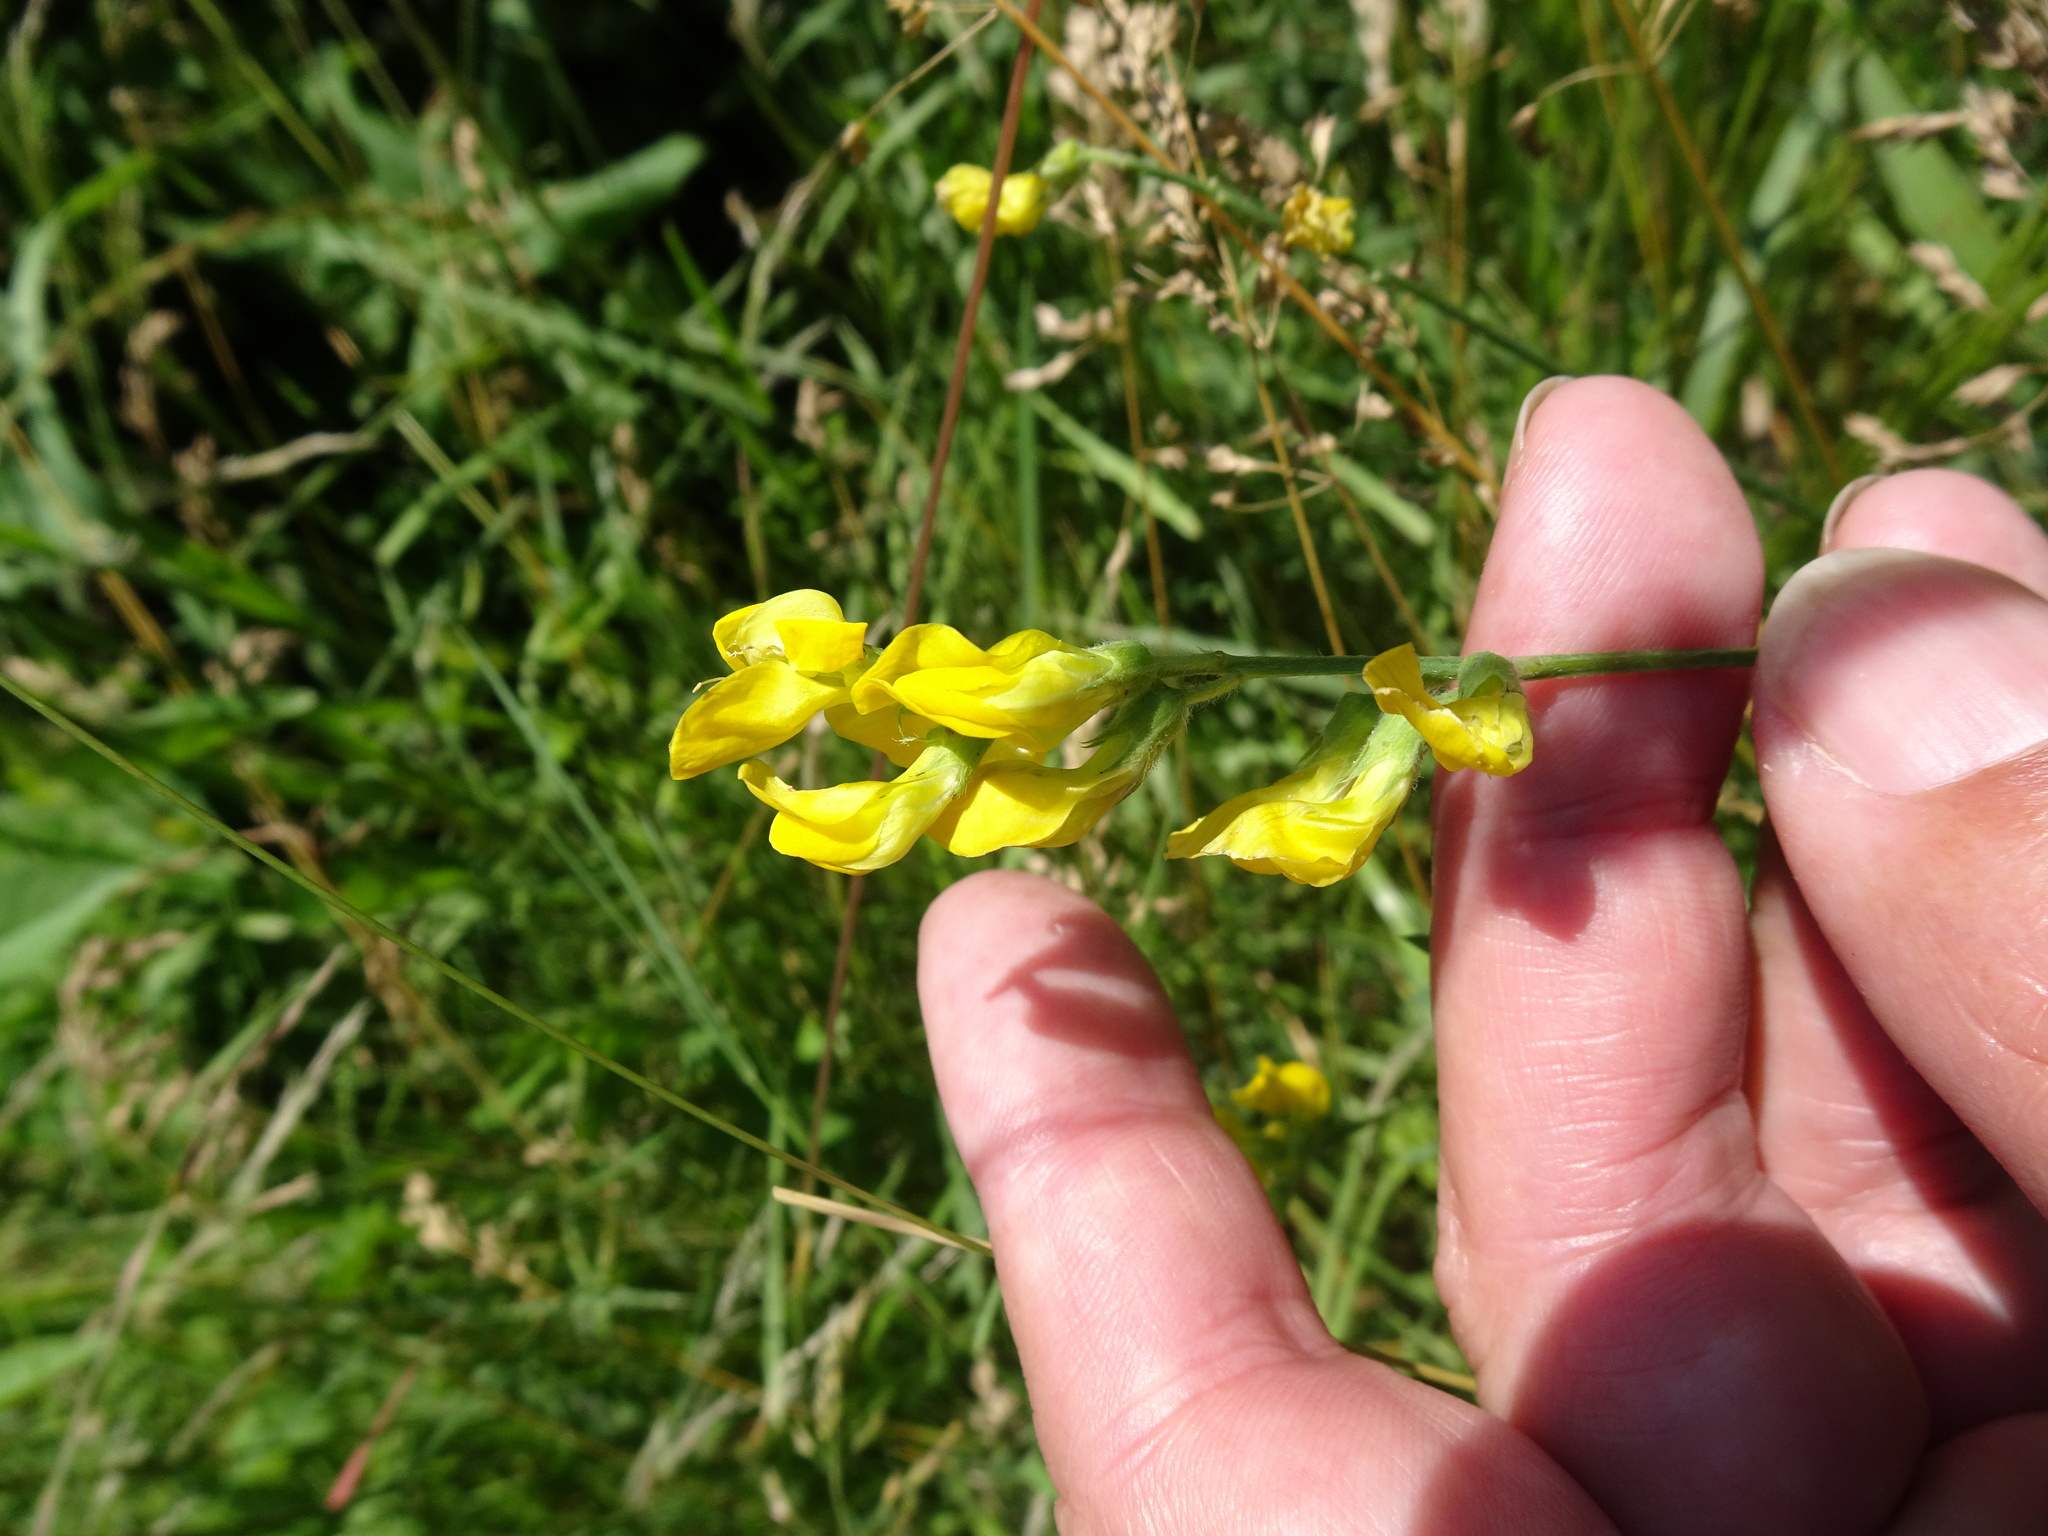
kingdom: Plantae
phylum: Tracheophyta
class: Magnoliopsida
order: Fabales
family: Fabaceae
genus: Lathyrus
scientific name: Lathyrus pratensis
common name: Meadow vetchling
